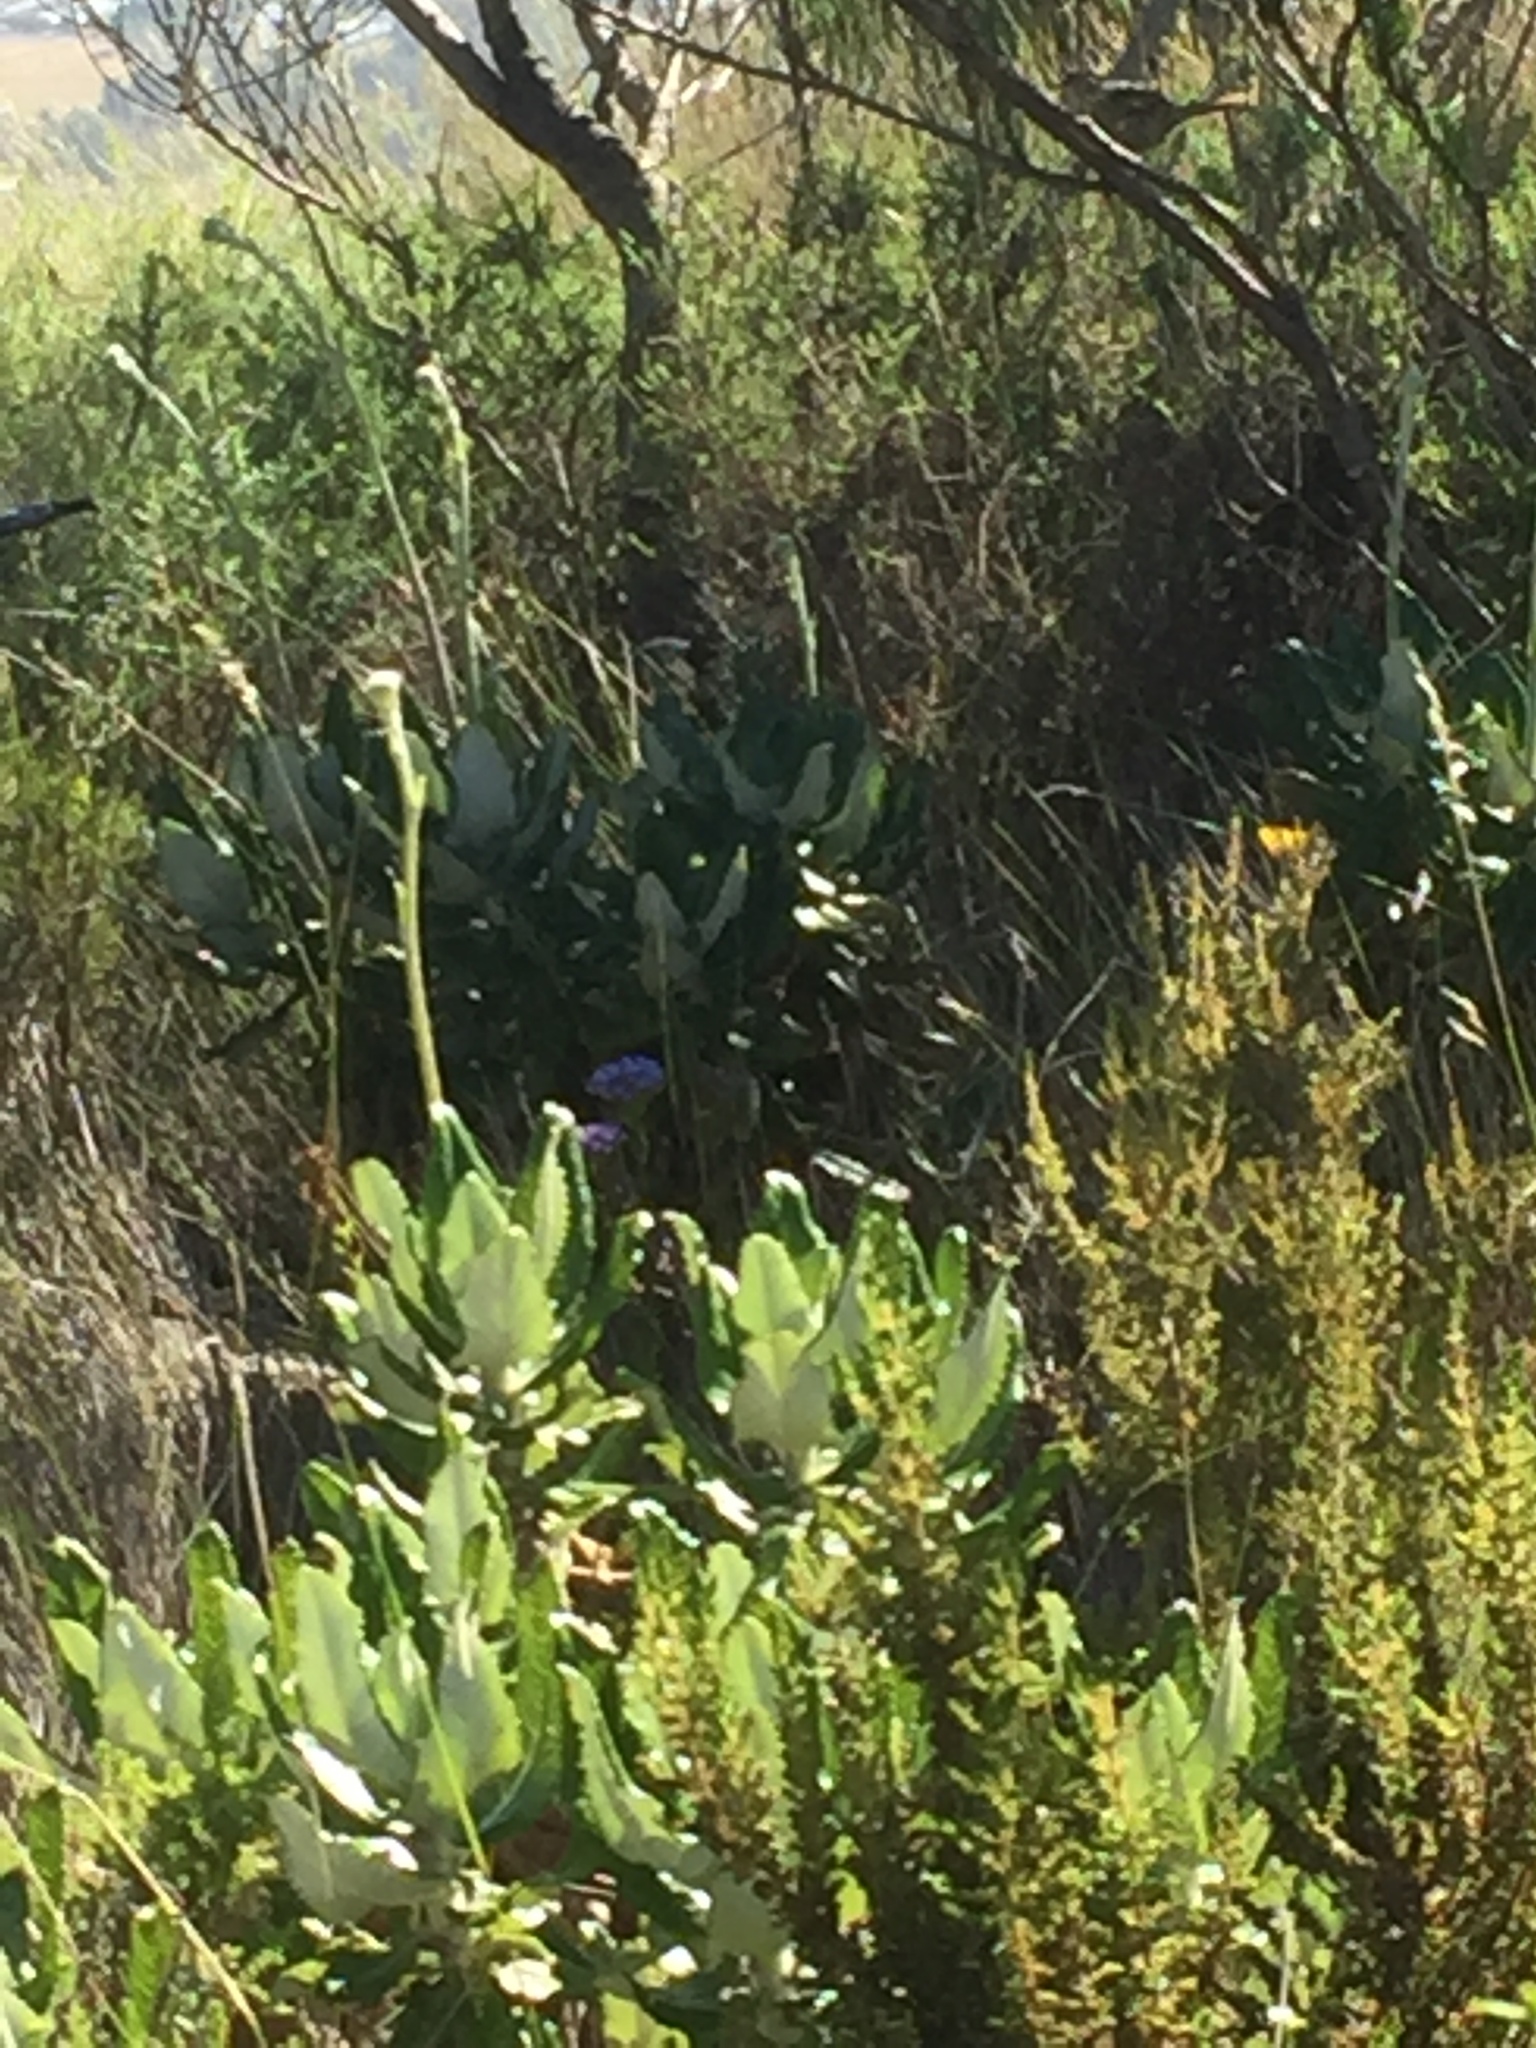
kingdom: Animalia
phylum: Chordata
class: Aves
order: Passeriformes
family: Macrosphenidae
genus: Sphenoeacus
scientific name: Sphenoeacus afer
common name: Cape grassbird
